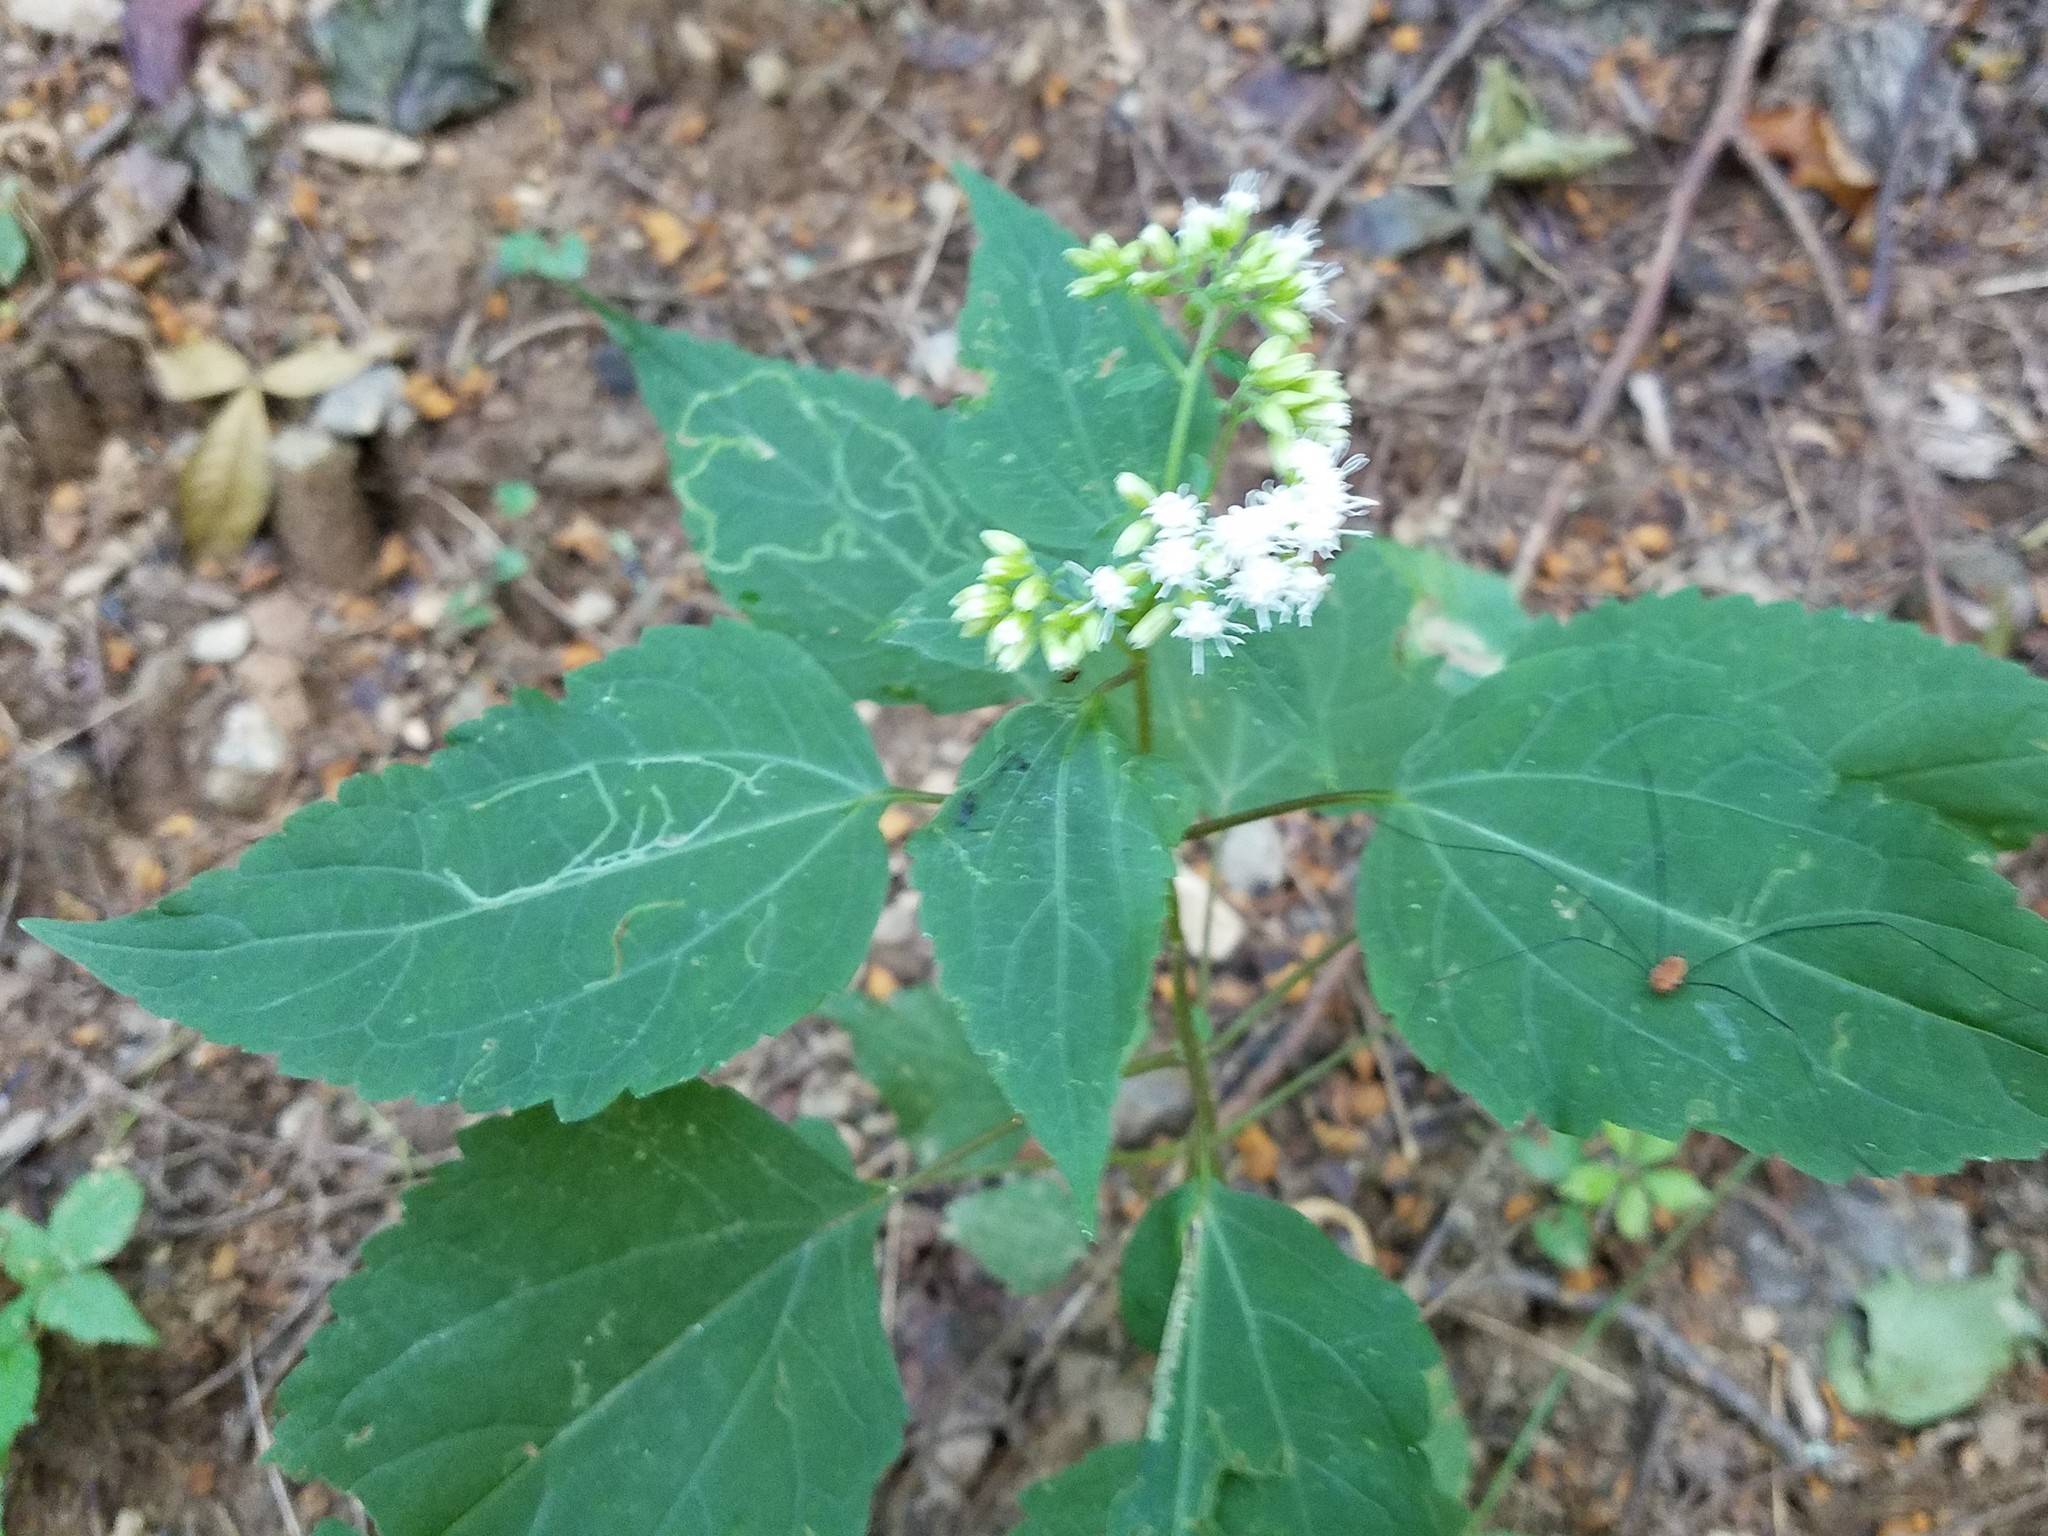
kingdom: Plantae
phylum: Tracheophyta
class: Magnoliopsida
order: Asterales
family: Asteraceae
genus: Ageratina
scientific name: Ageratina altissima
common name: White snakeroot
